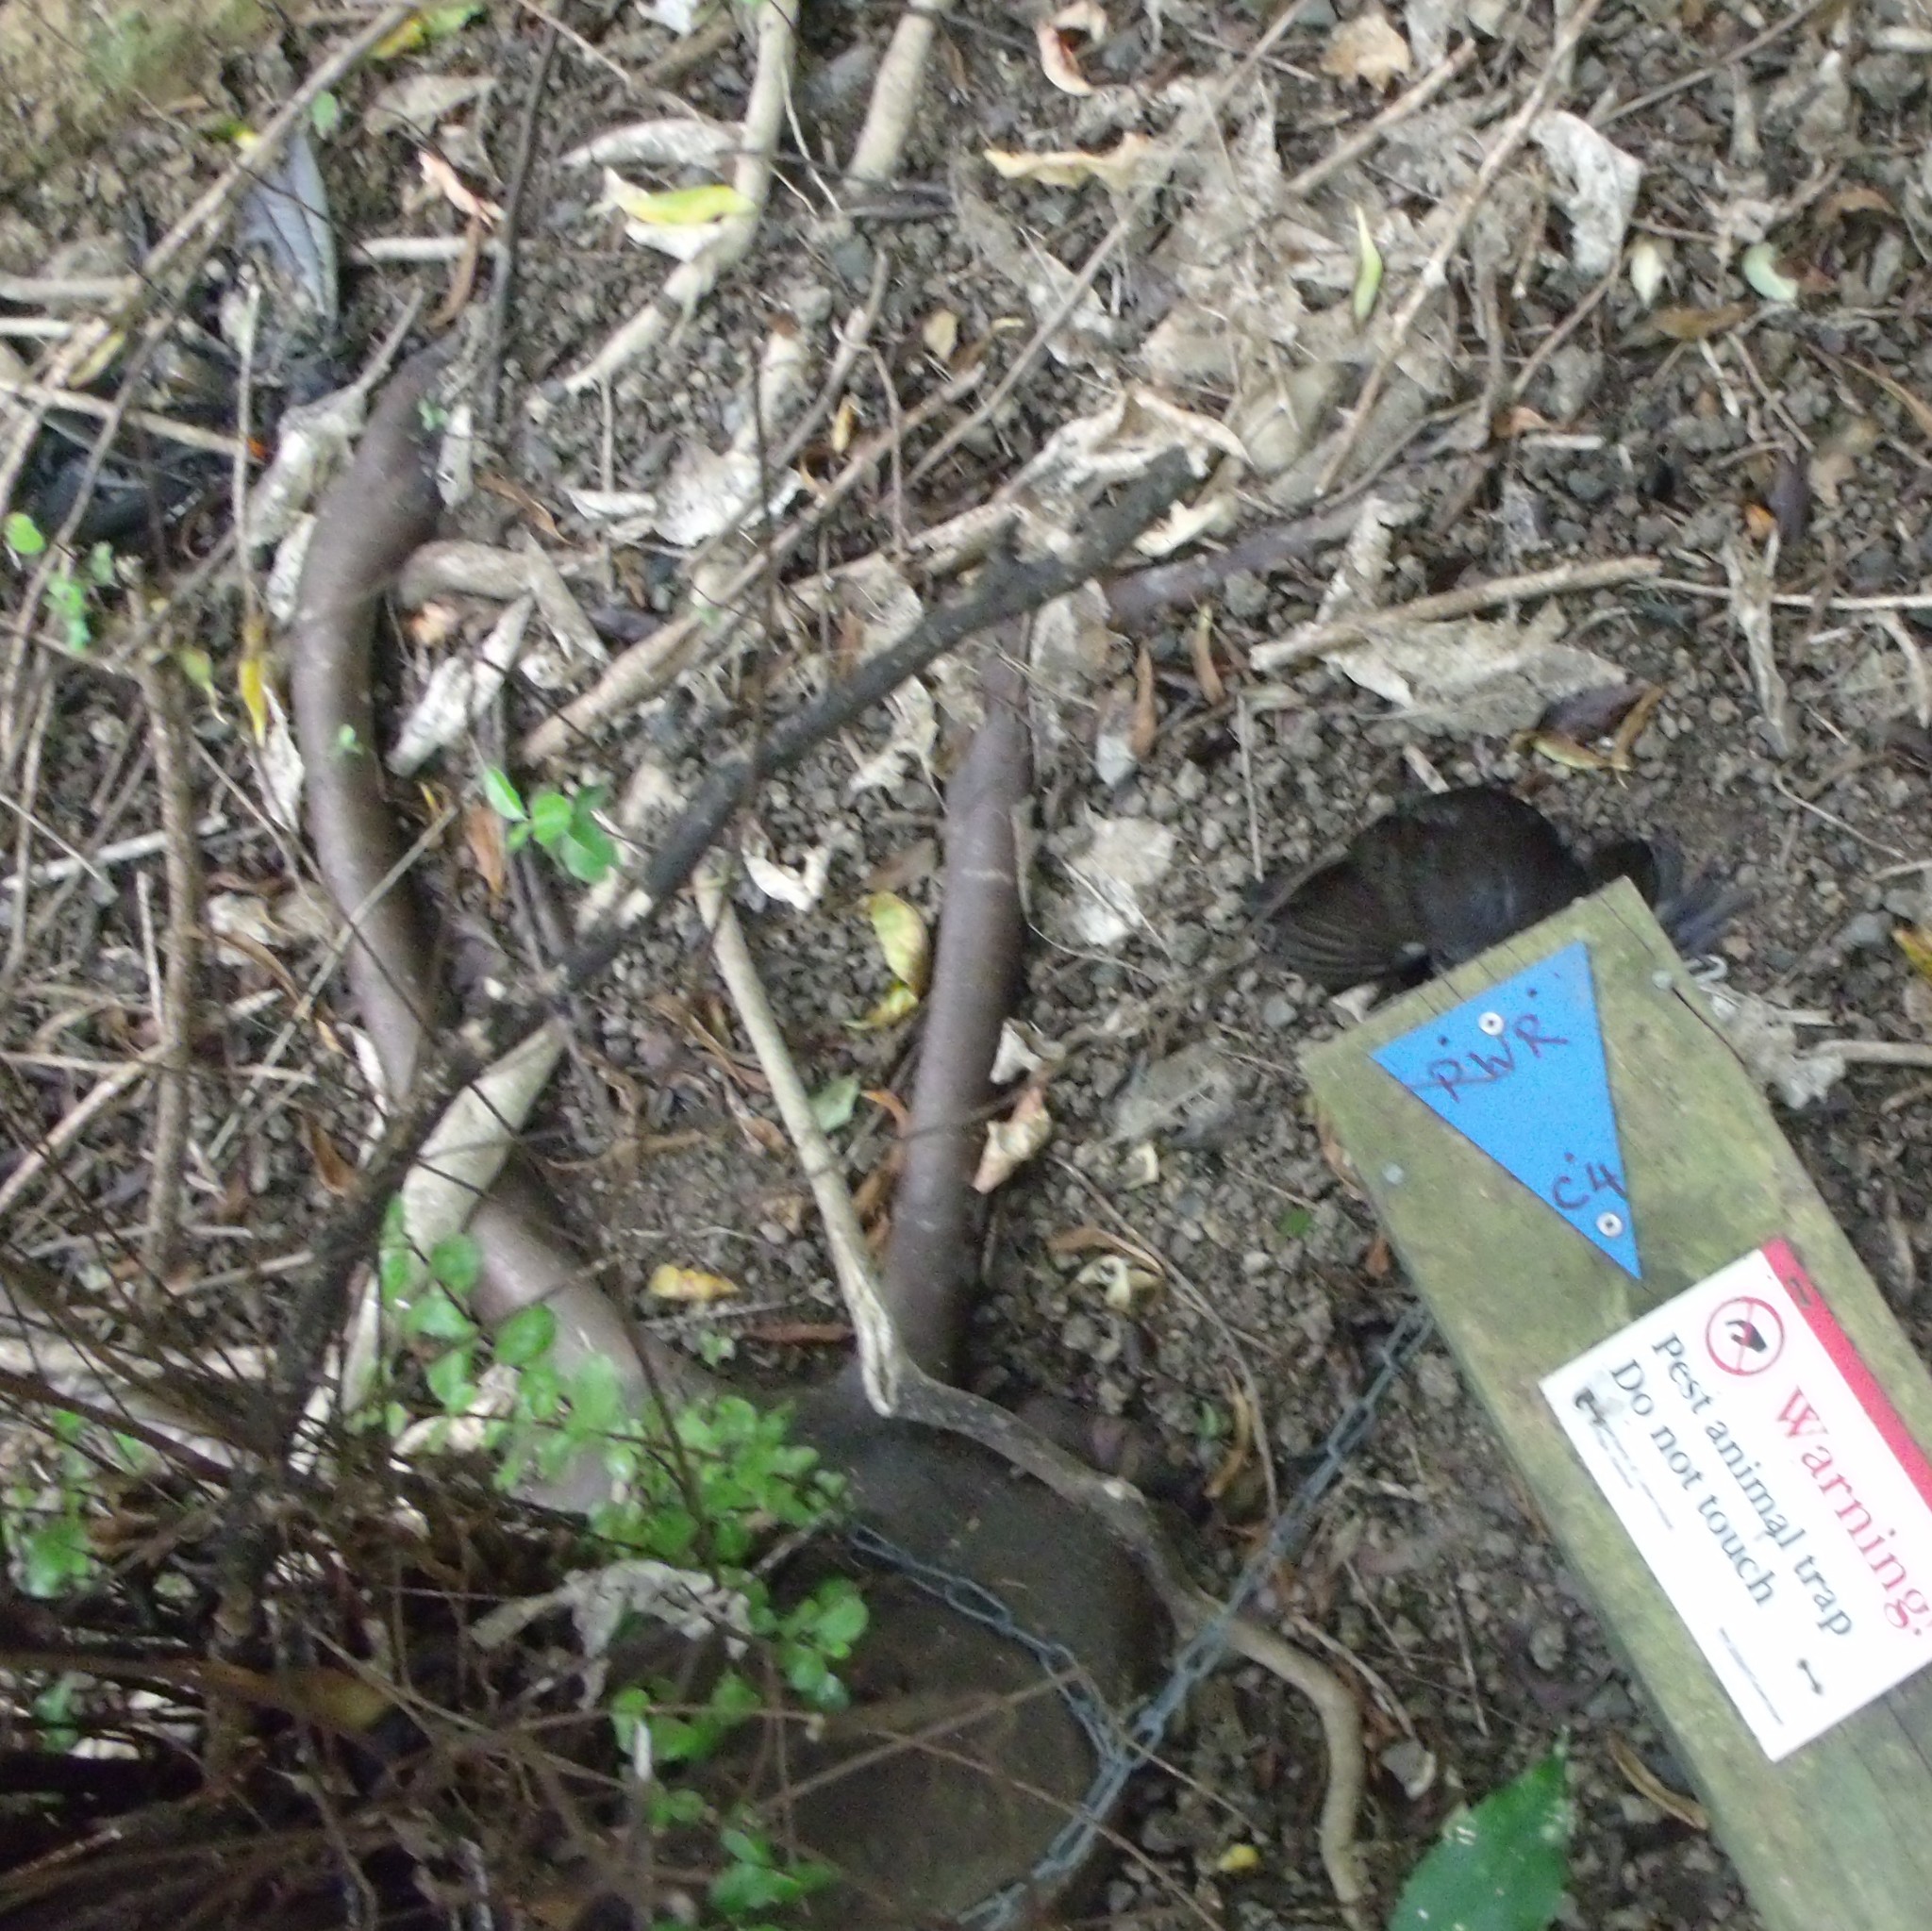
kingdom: Animalia
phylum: Chordata
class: Aves
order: Passeriformes
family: Turdidae
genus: Turdus
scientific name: Turdus merula
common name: Common blackbird
